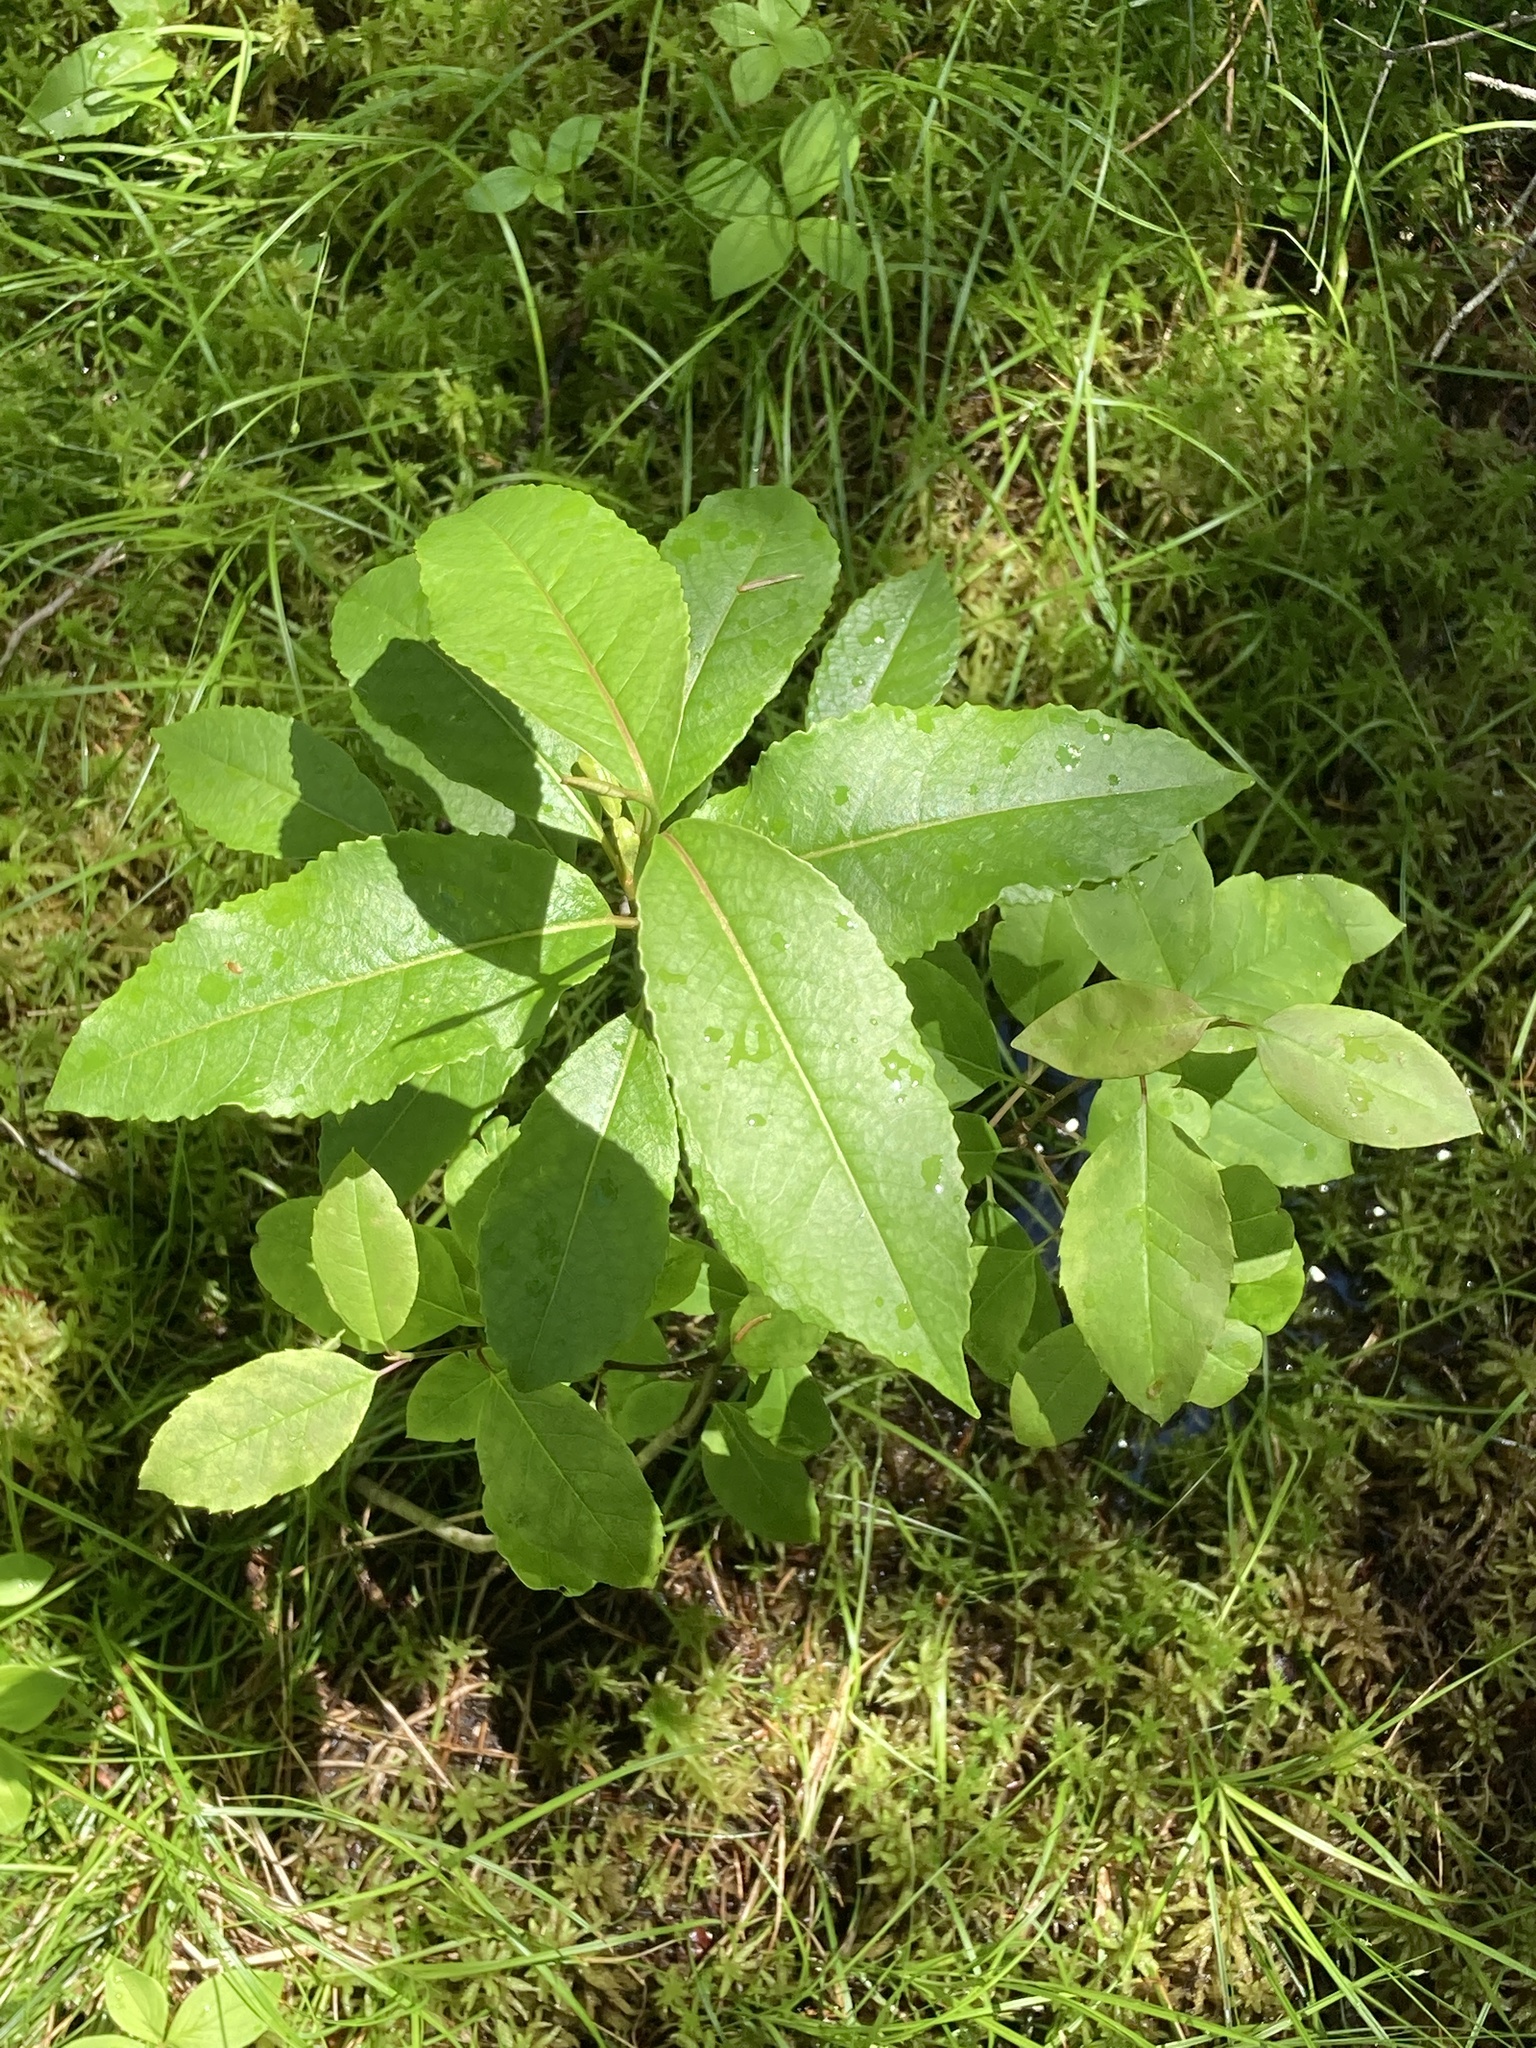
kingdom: Plantae
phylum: Tracheophyta
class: Magnoliopsida
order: Dipsacales
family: Viburnaceae
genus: Viburnum
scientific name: Viburnum cassinoides
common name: Swamp haw
